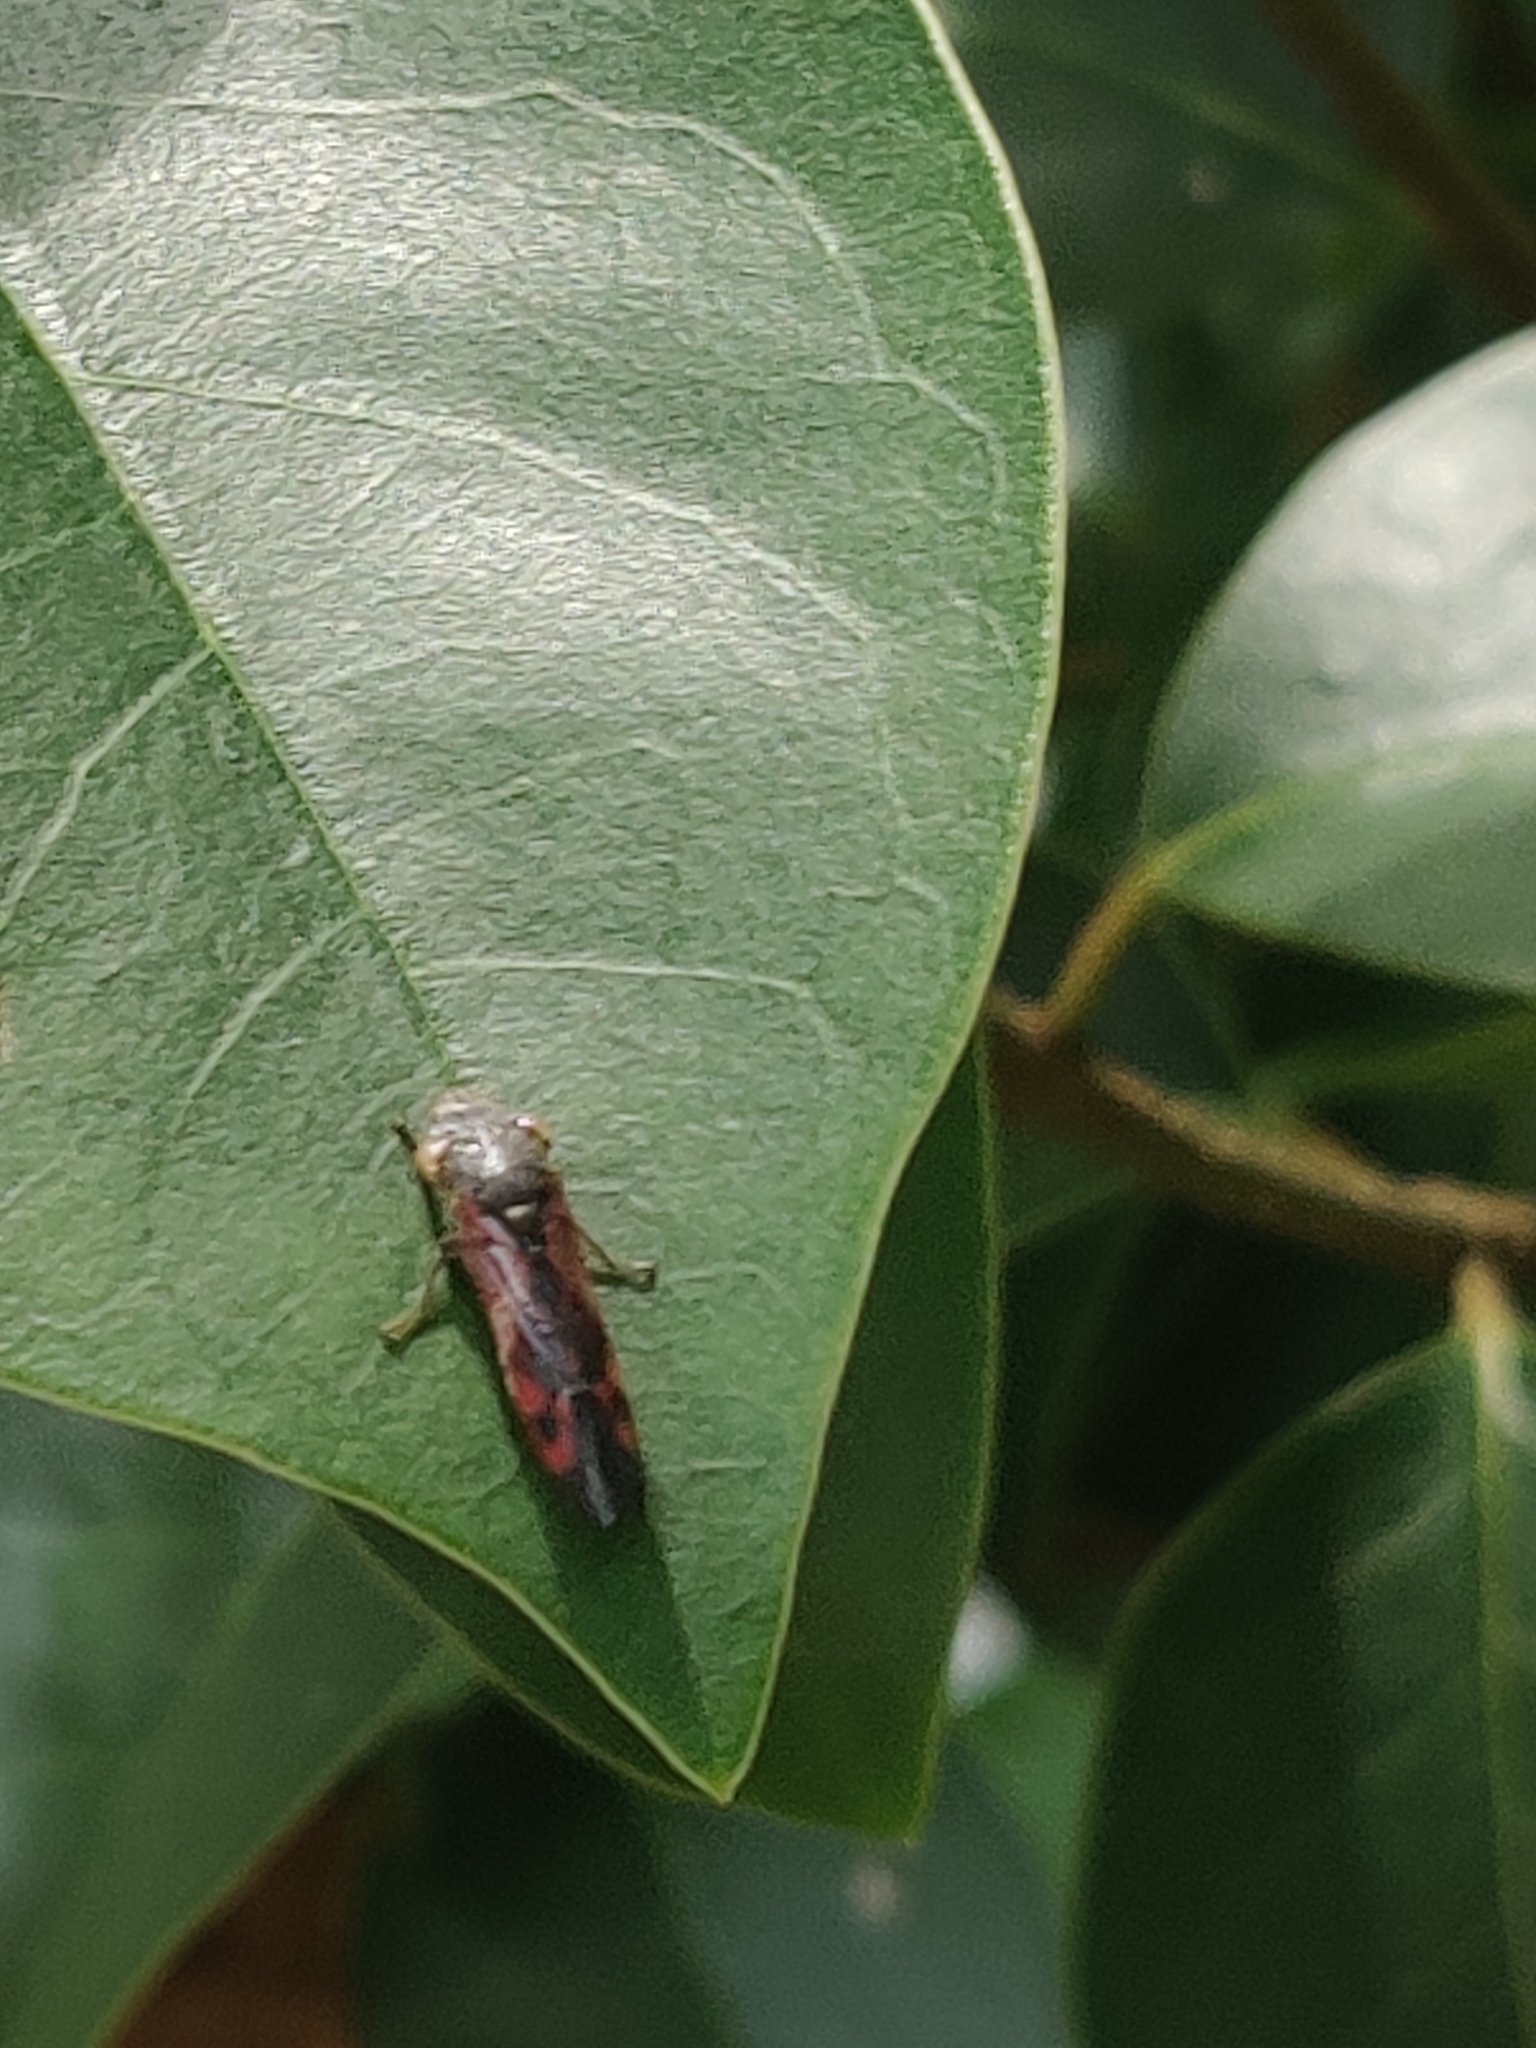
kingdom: Animalia
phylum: Arthropoda
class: Insecta
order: Hemiptera
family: Cicadellidae
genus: Homalodisca
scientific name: Homalodisca vitripennis
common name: Glassy-winged sharpshooter
